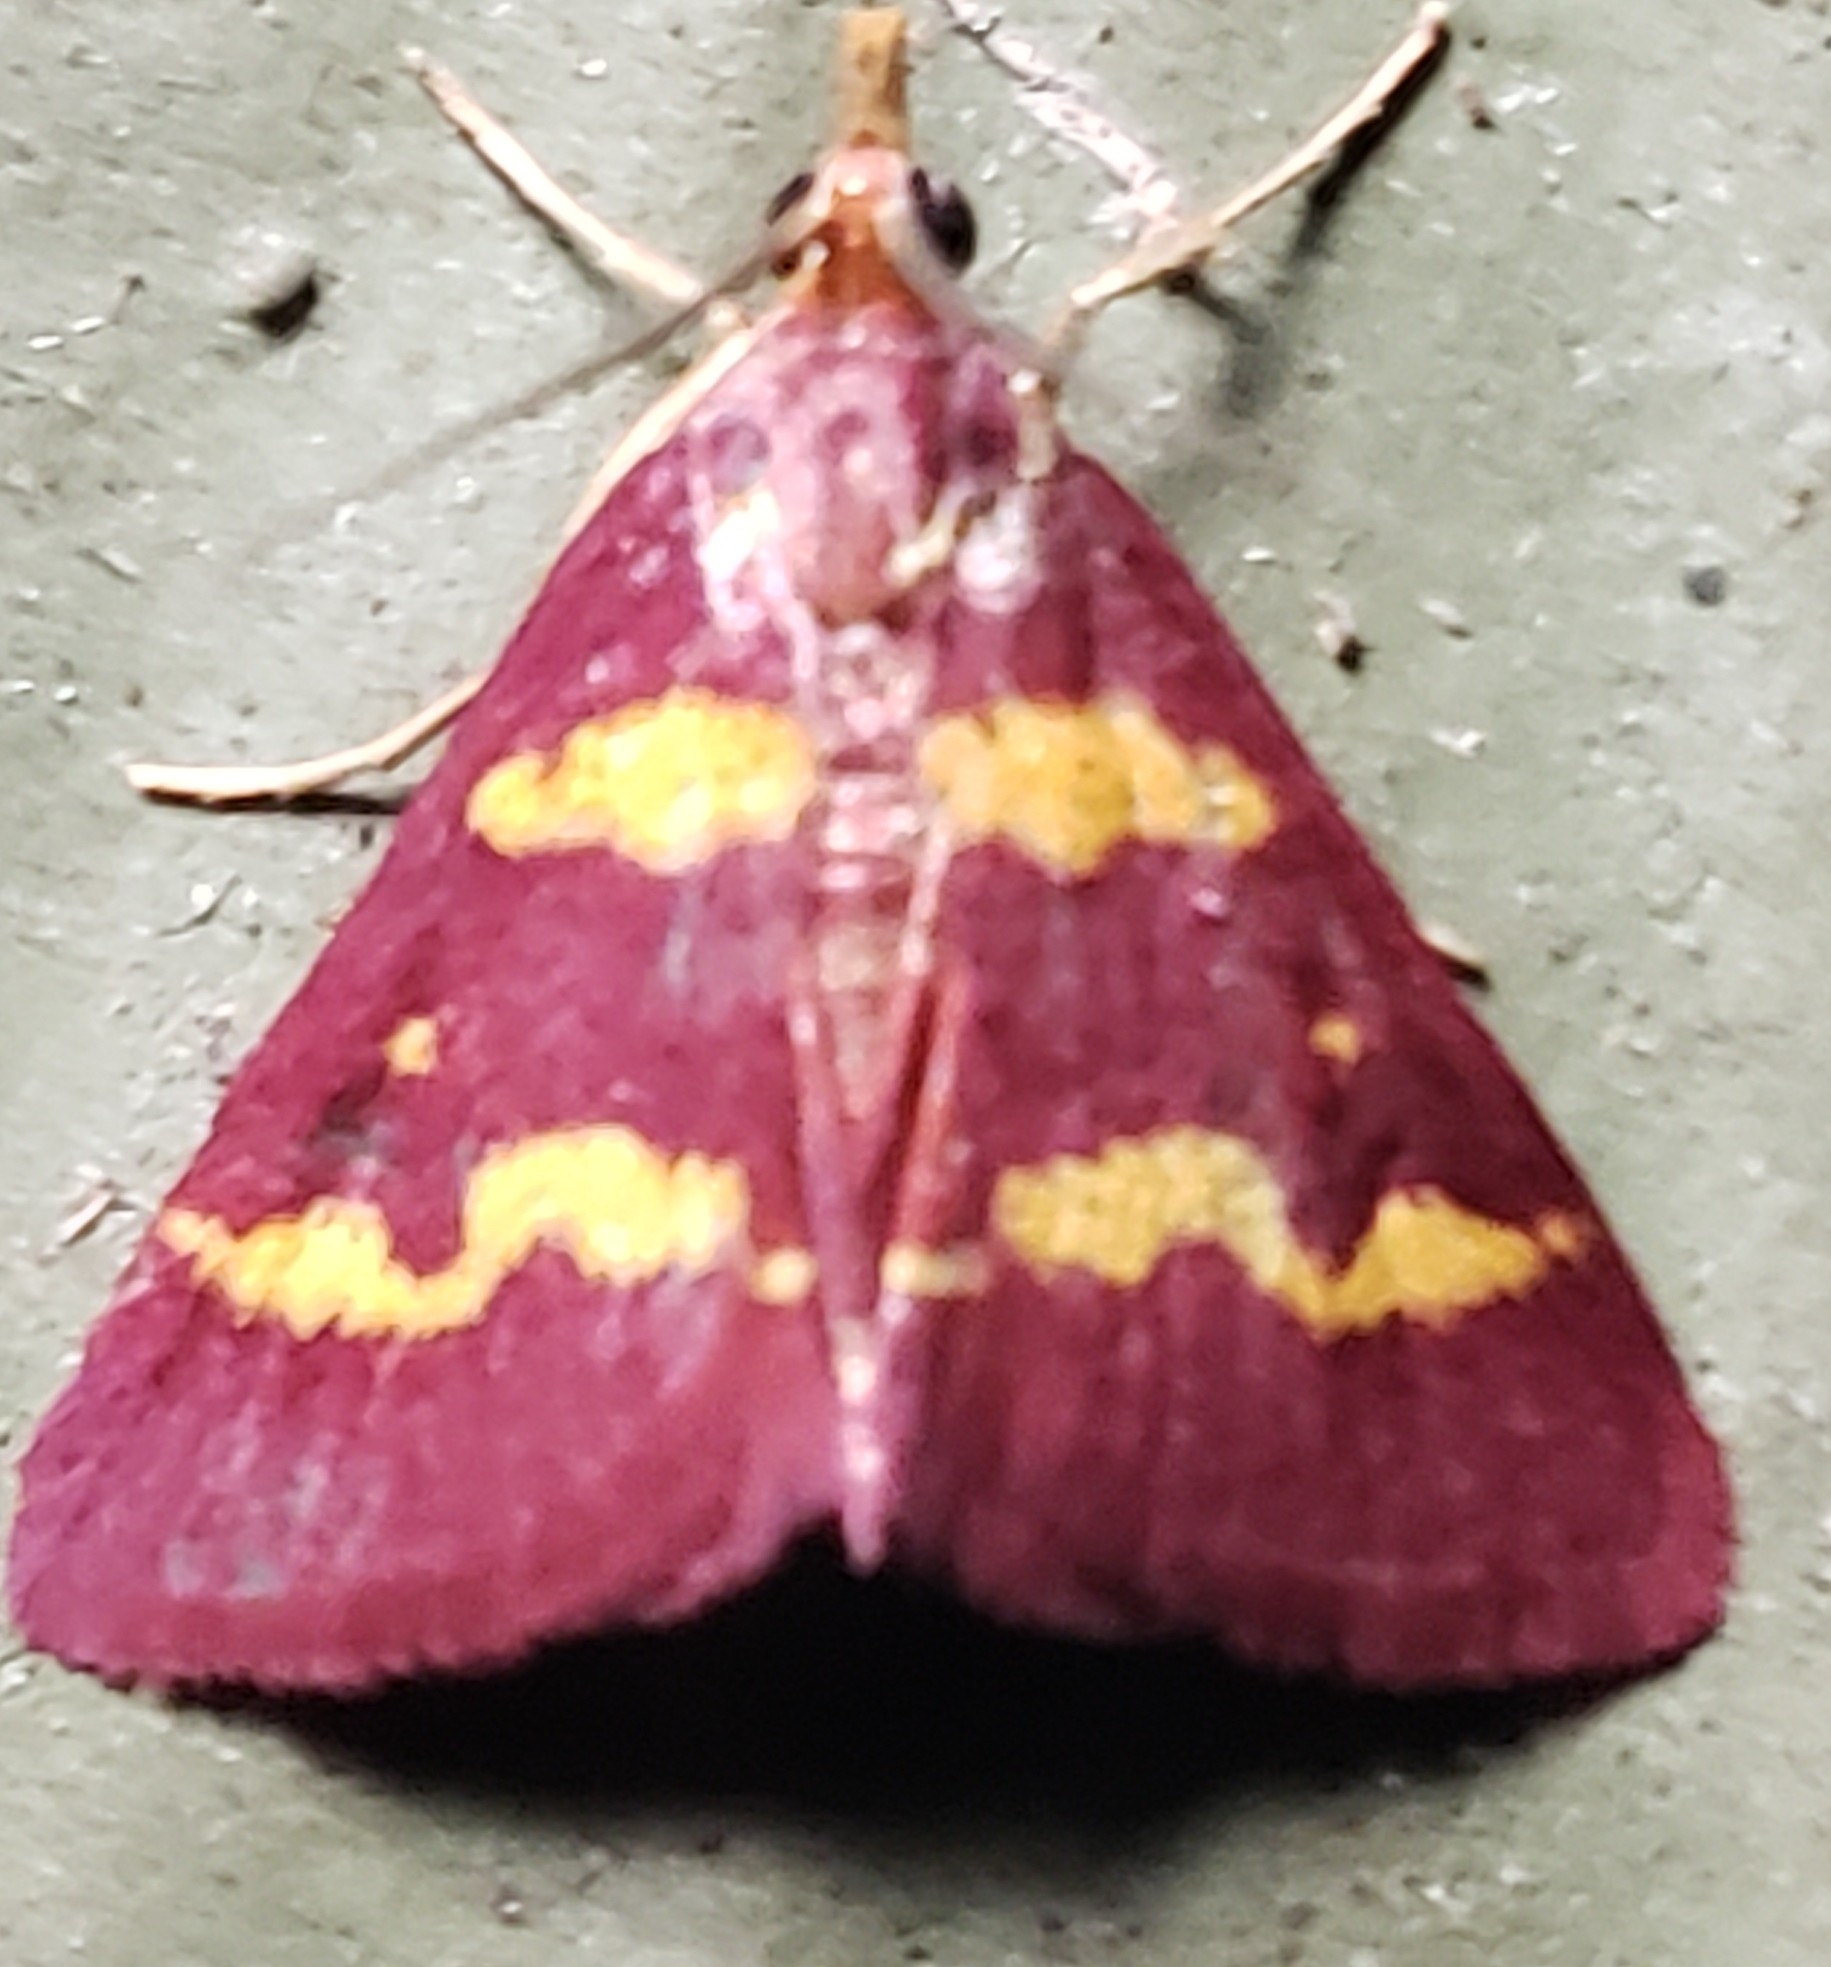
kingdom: Animalia
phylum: Arthropoda
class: Insecta
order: Lepidoptera
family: Crambidae
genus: Pyrausta
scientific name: Pyrausta tyralis
